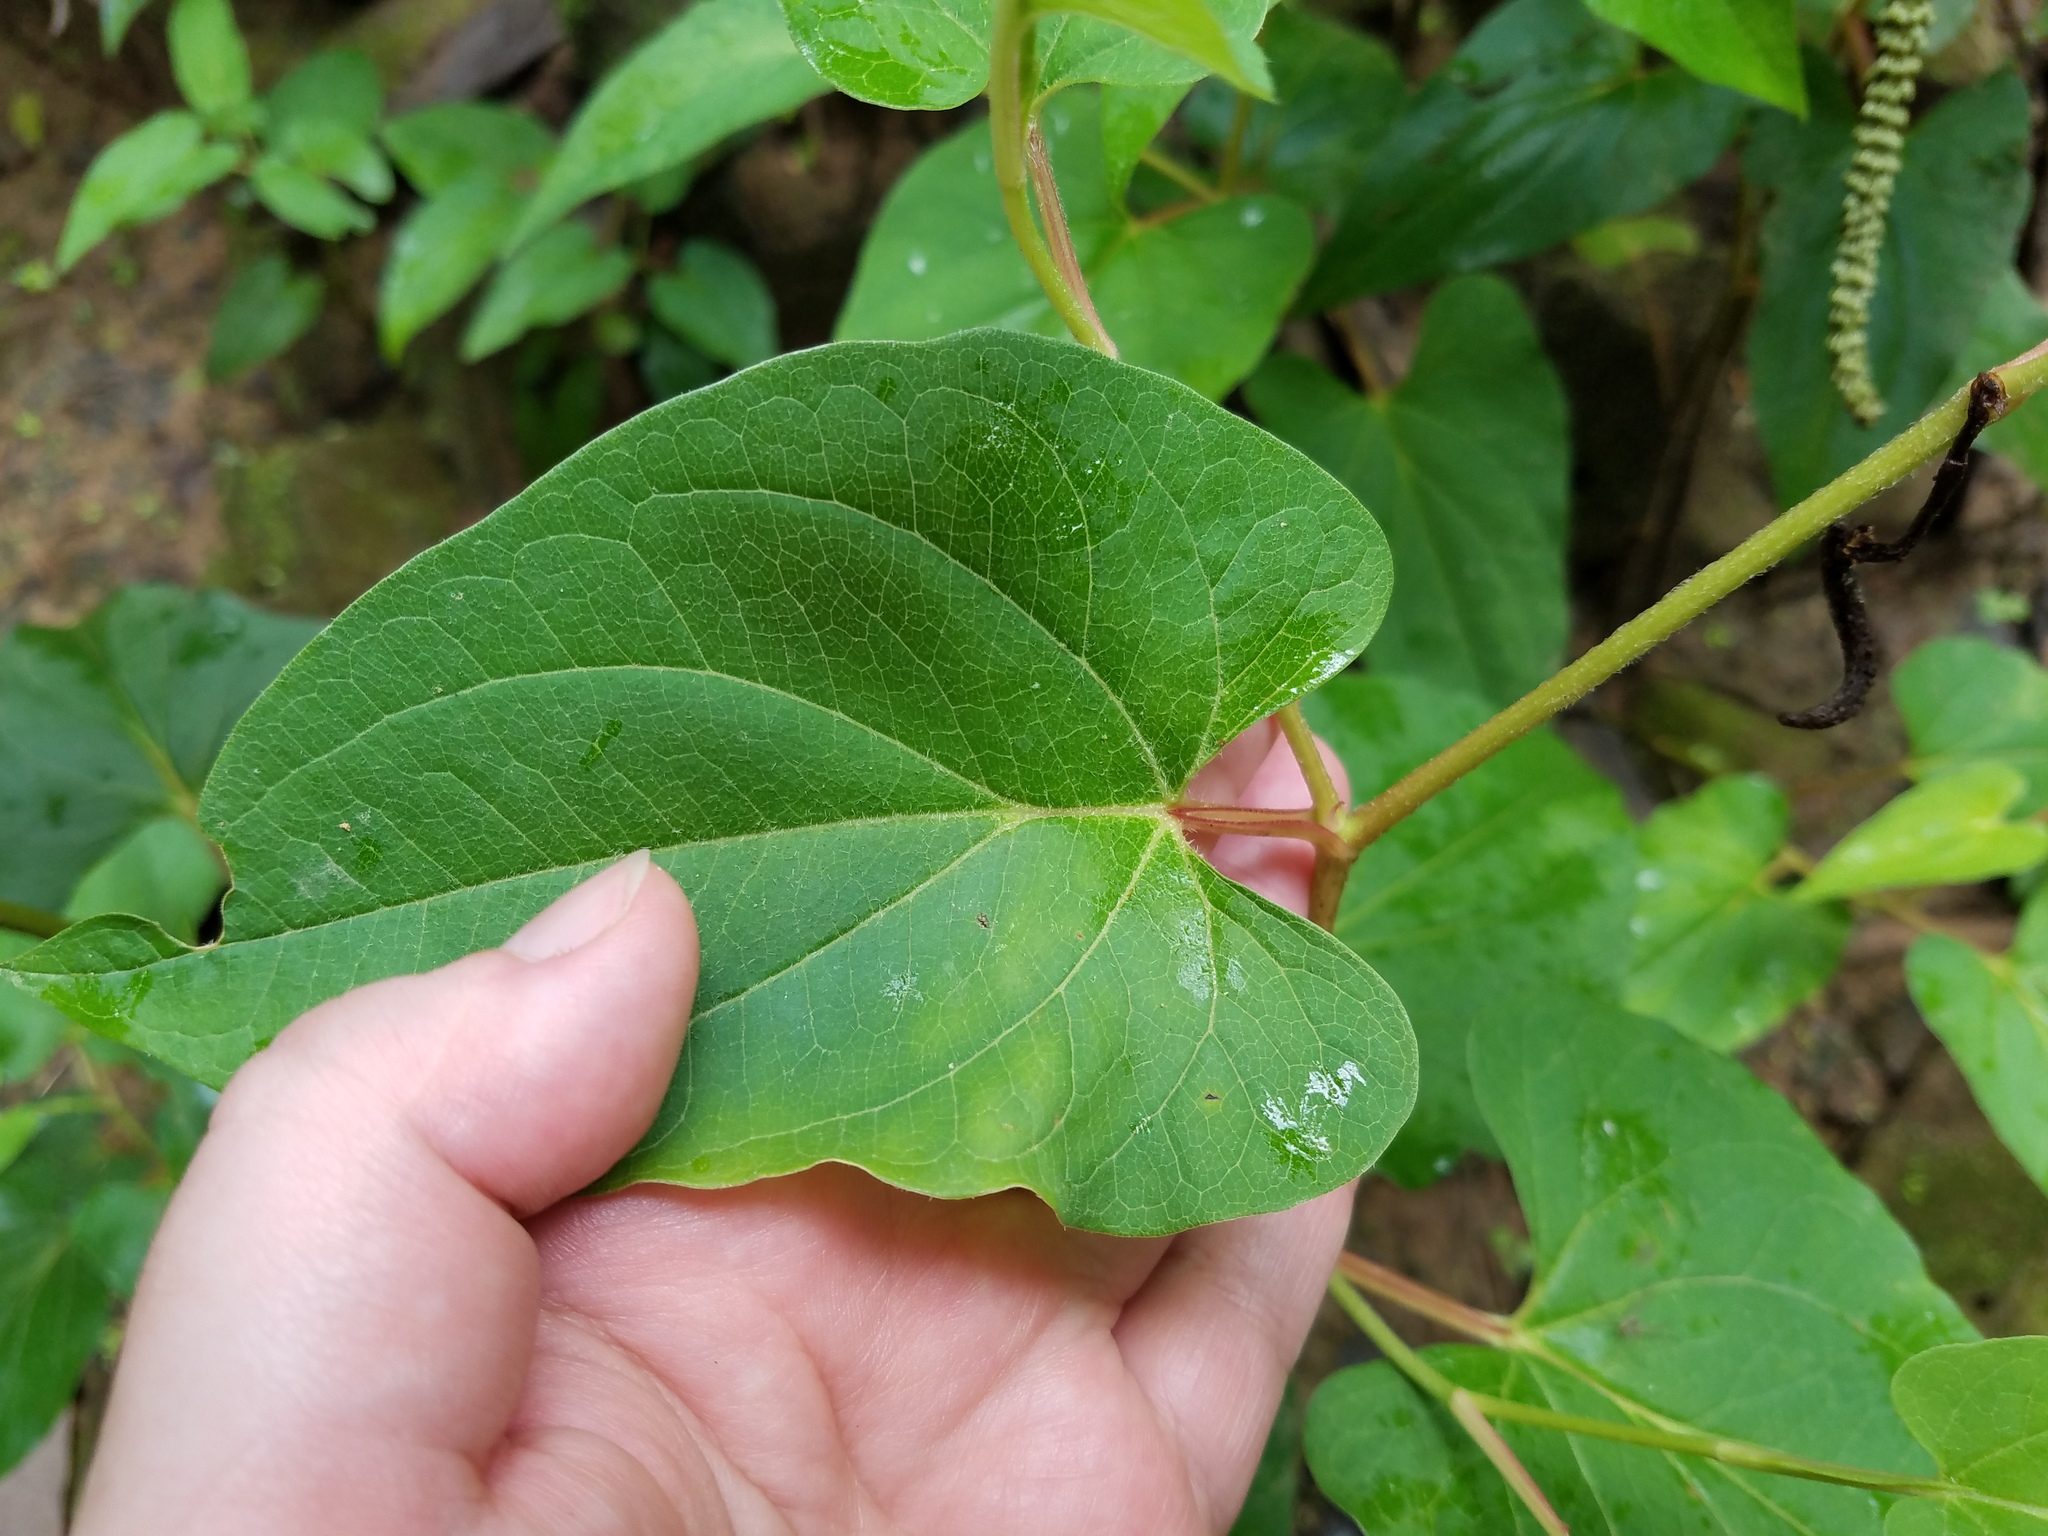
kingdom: Plantae
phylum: Tracheophyta
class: Magnoliopsida
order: Piperales
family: Saururaceae
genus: Saururus
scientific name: Saururus cernuus
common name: Lizard's-tail
